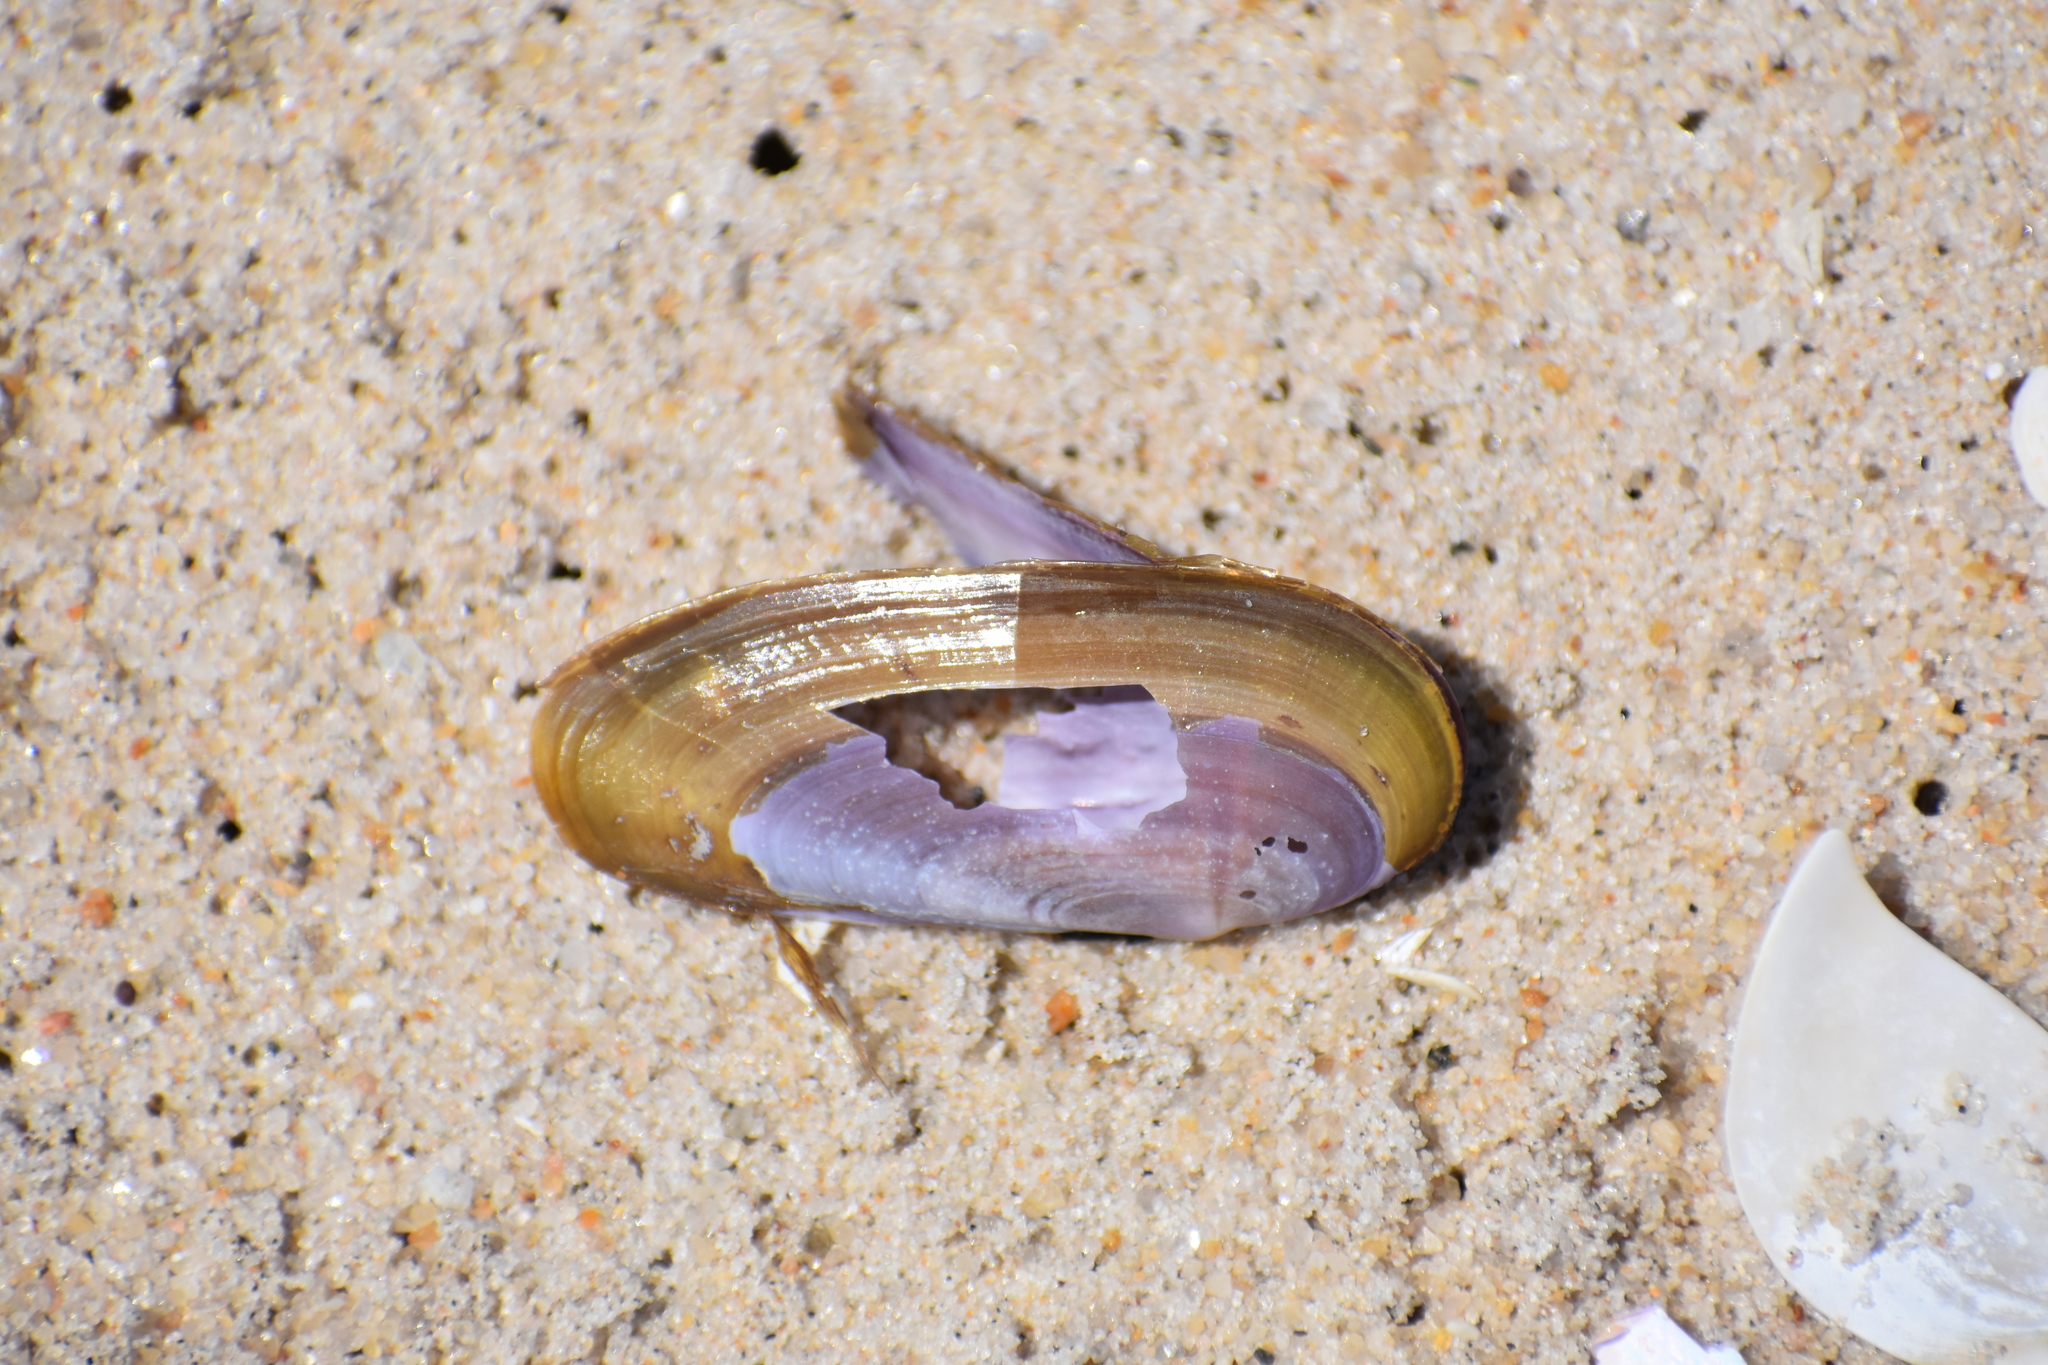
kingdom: Animalia
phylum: Mollusca
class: Bivalvia
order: Adapedonta
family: Pharidae
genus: Siliqua
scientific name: Siliqua costata
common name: Atlantic razor
